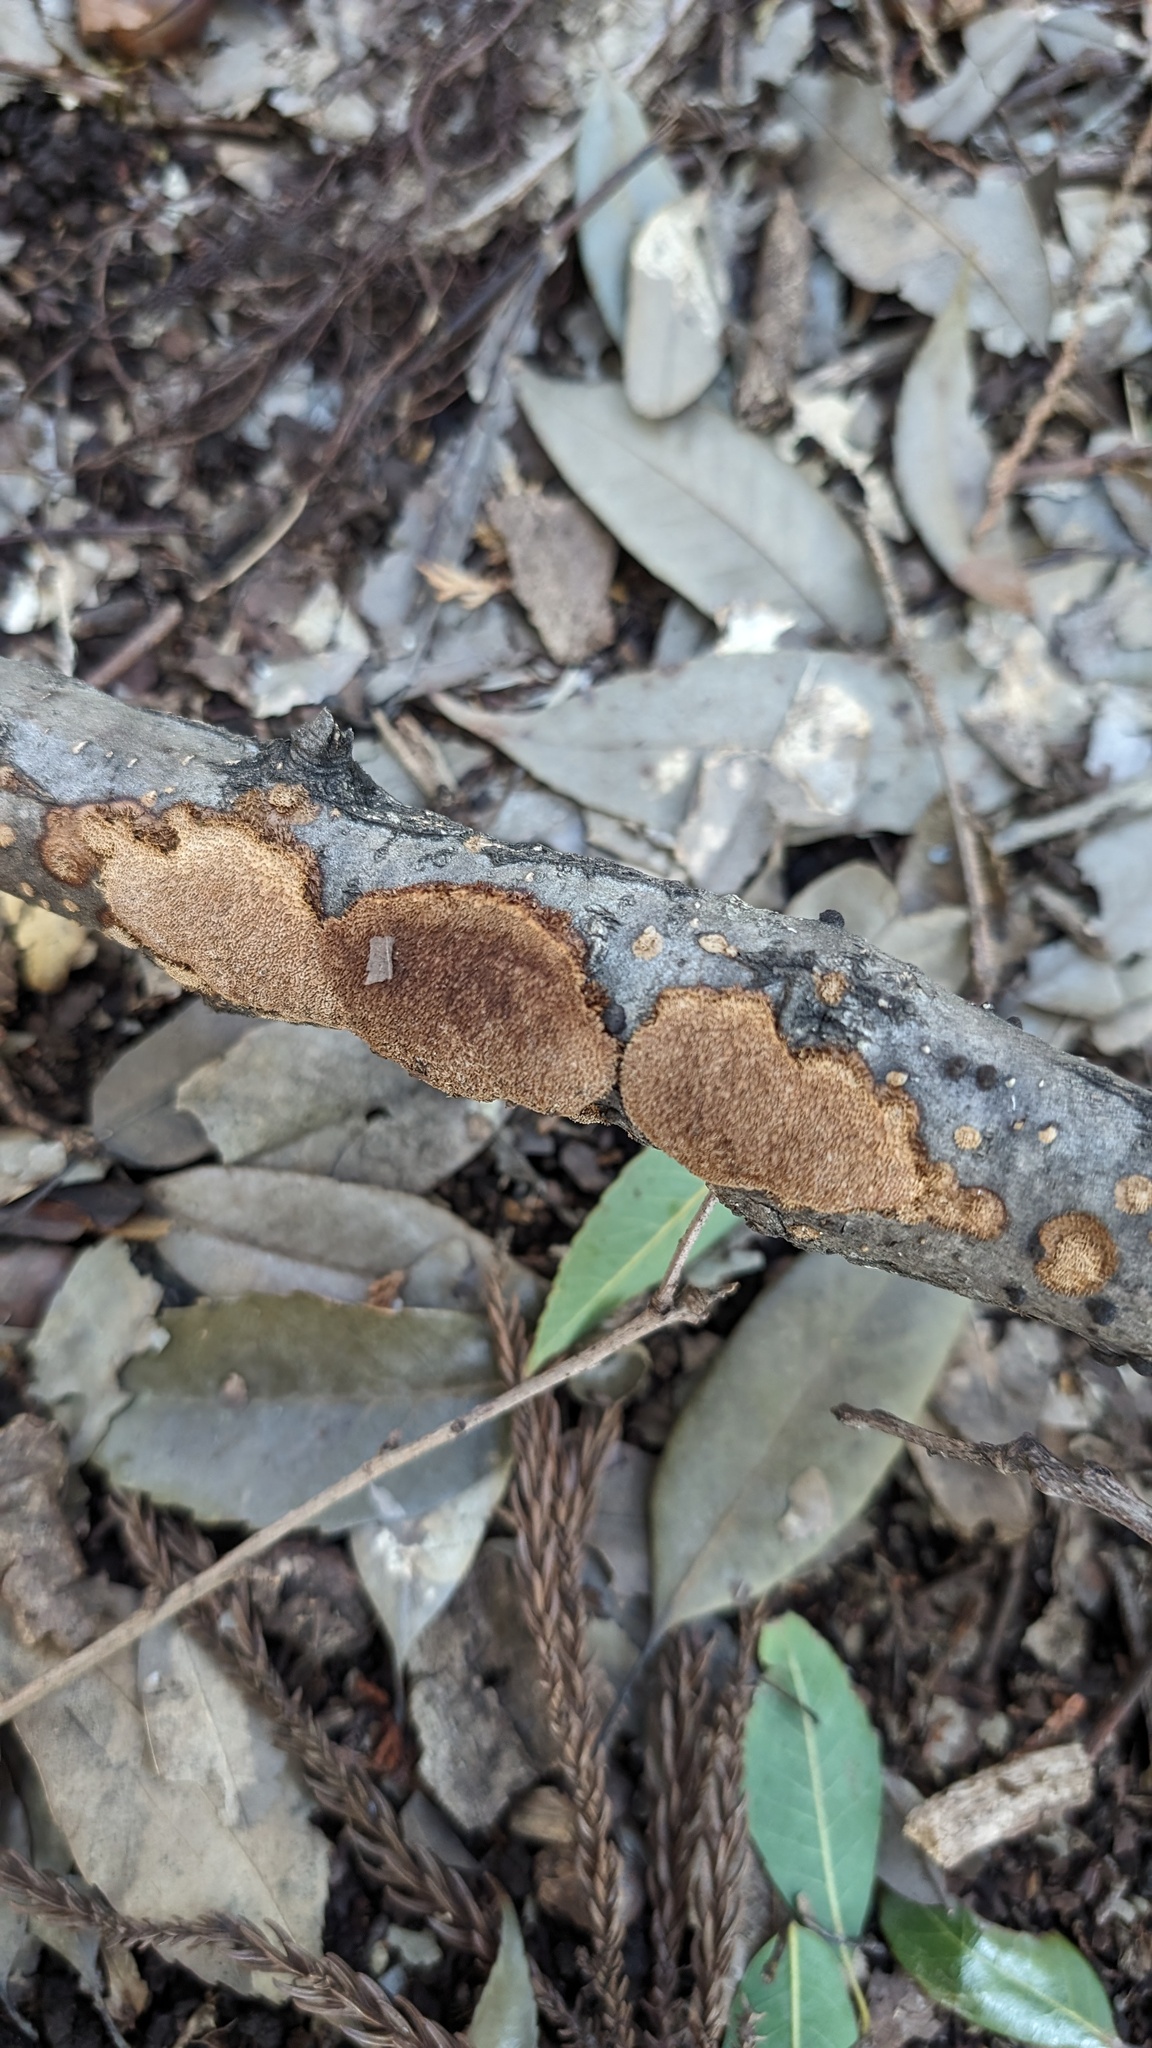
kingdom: Fungi
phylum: Basidiomycota
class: Agaricomycetes
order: Hymenochaetales
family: Hymenochaetaceae
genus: Fuscoporia
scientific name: Fuscoporia setifera
